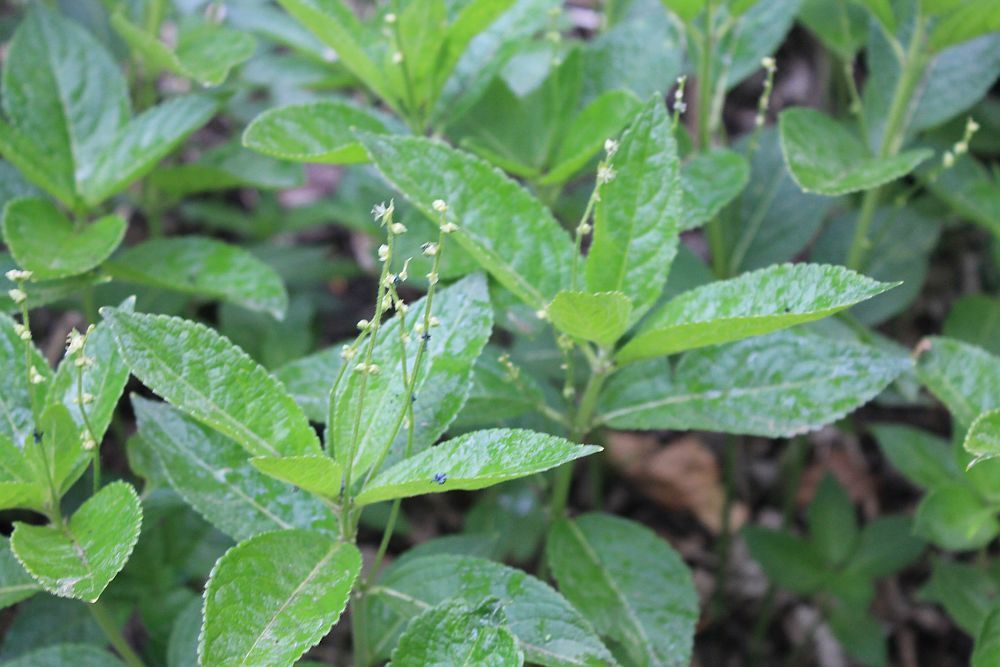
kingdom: Plantae
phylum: Tracheophyta
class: Magnoliopsida
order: Malpighiales
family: Euphorbiaceae
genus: Mercurialis
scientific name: Mercurialis perennis
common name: Dog mercury
